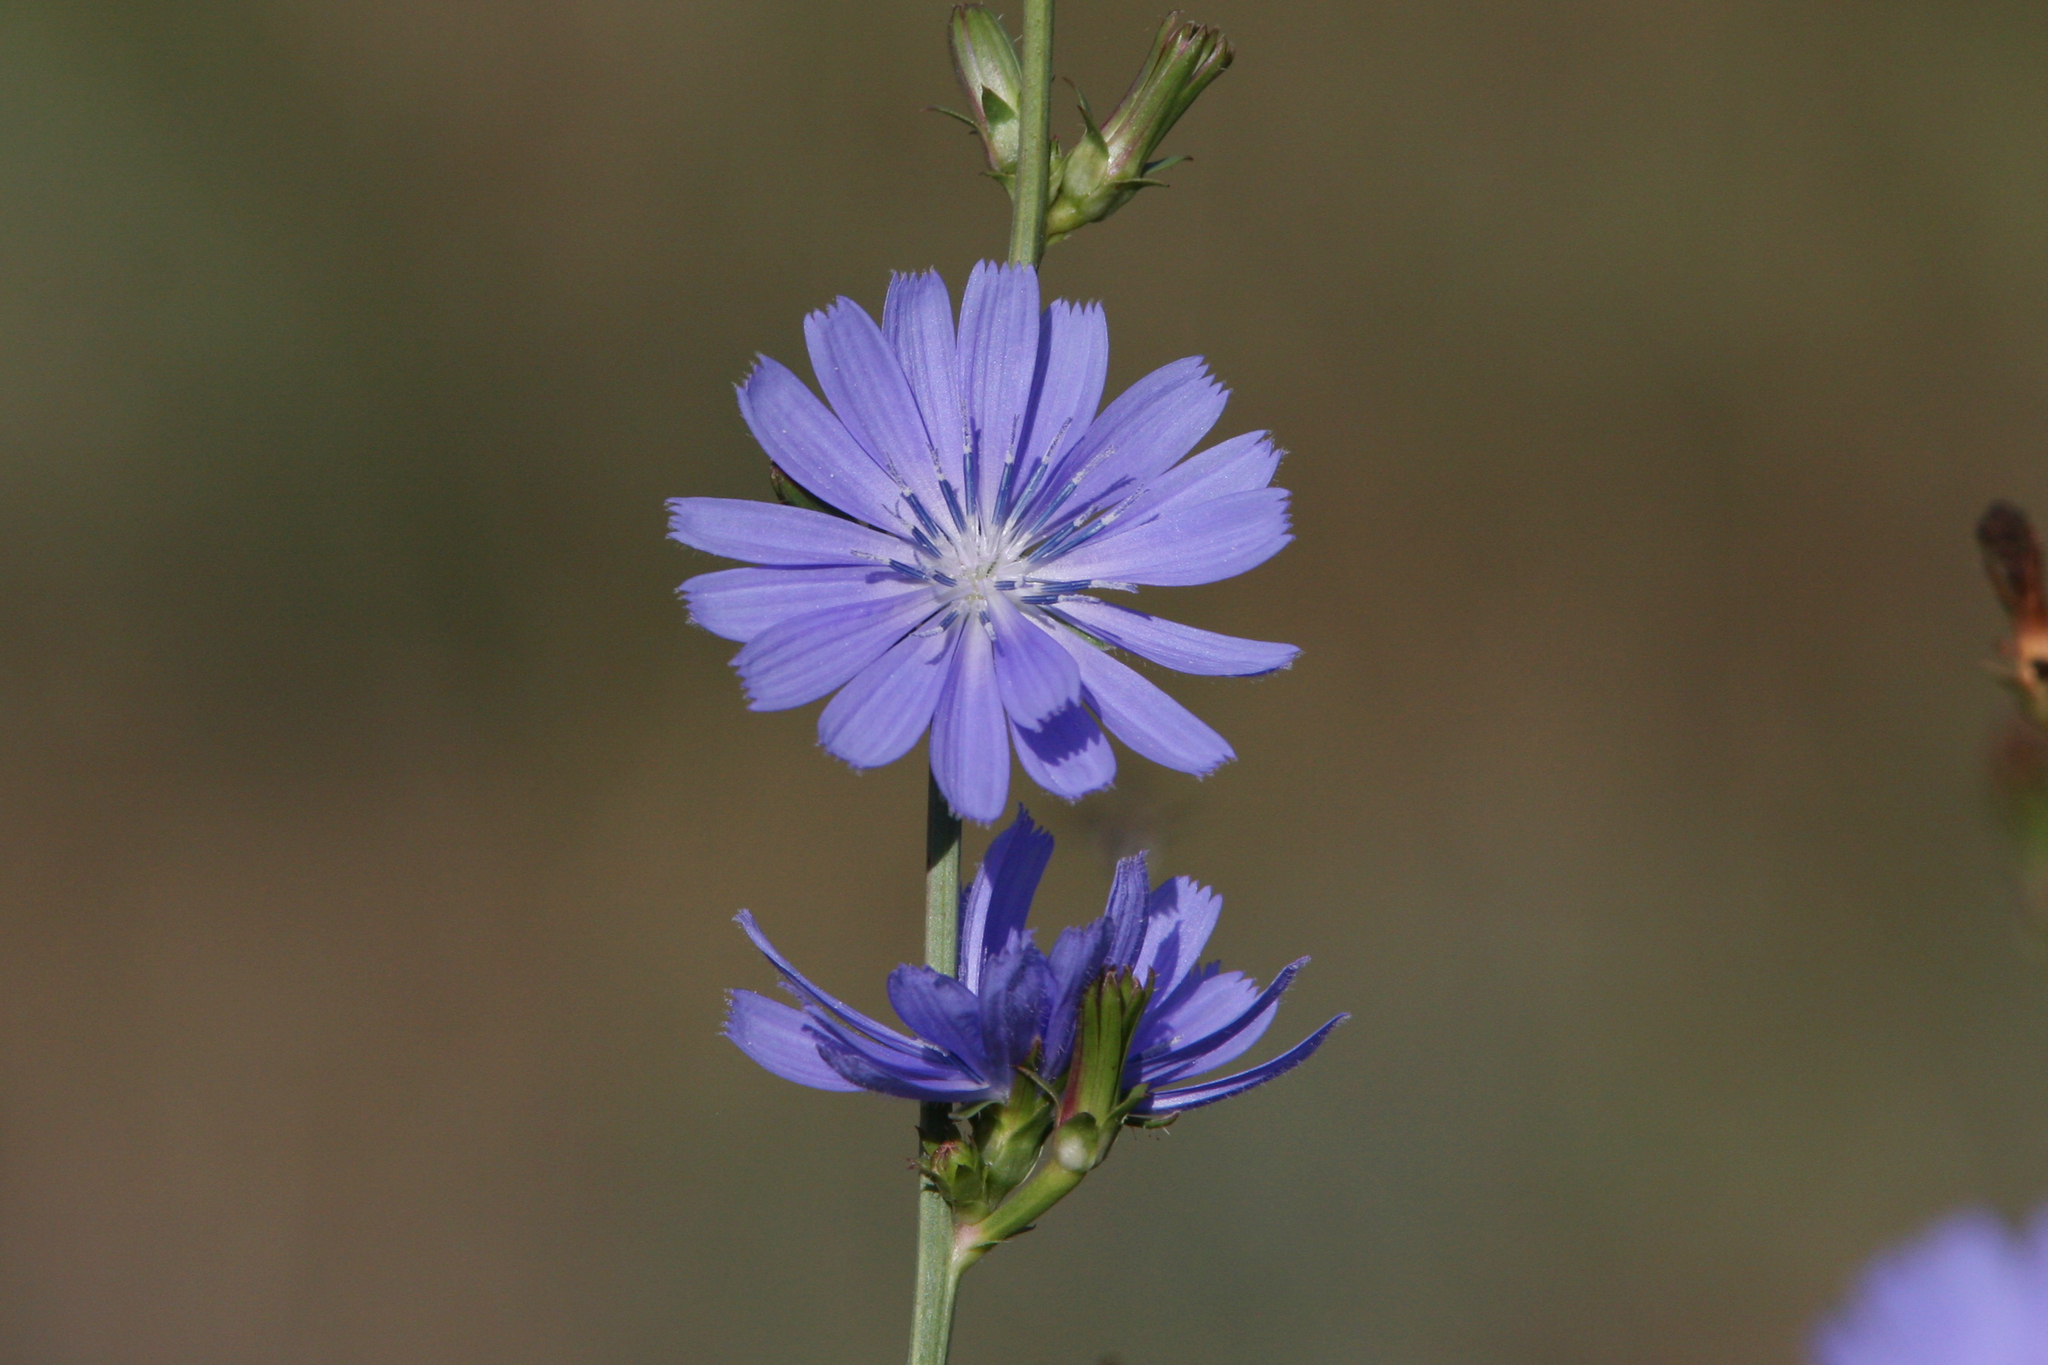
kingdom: Plantae
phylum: Tracheophyta
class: Magnoliopsida
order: Asterales
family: Asteraceae
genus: Cichorium
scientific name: Cichorium intybus
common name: Chicory
